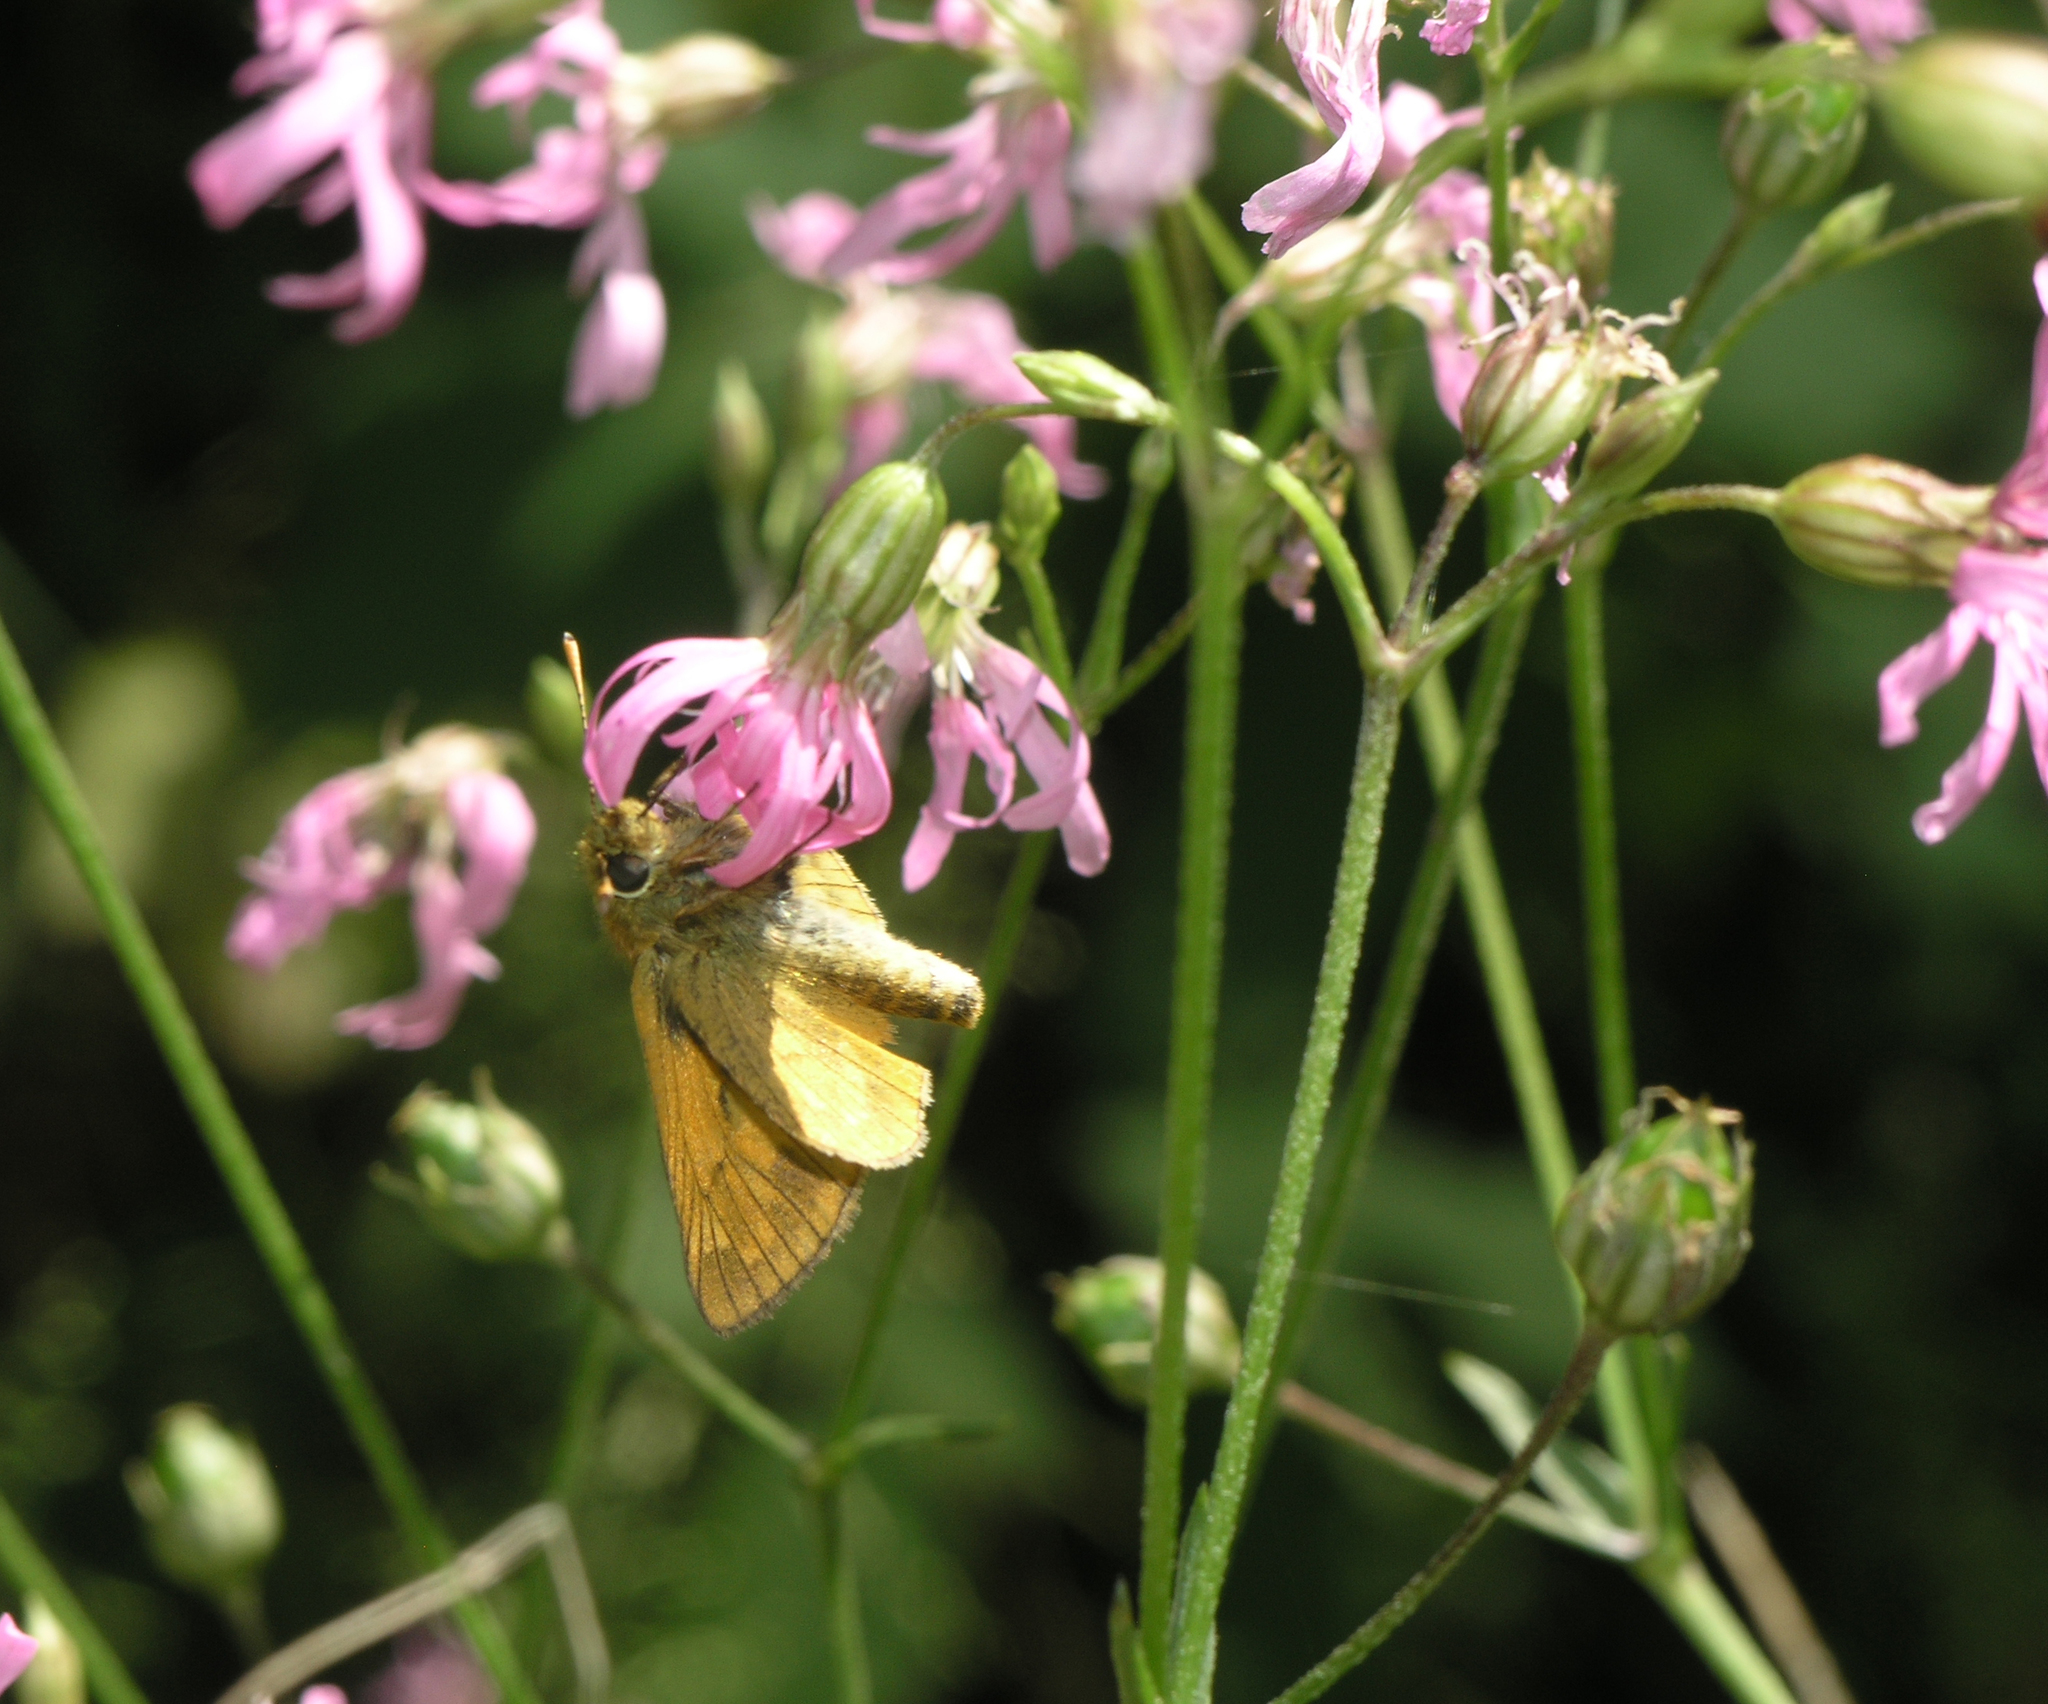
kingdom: Animalia
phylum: Arthropoda
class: Insecta
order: Lepidoptera
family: Hesperiidae
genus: Ochlodes
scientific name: Ochlodes venata
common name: Large skipper
